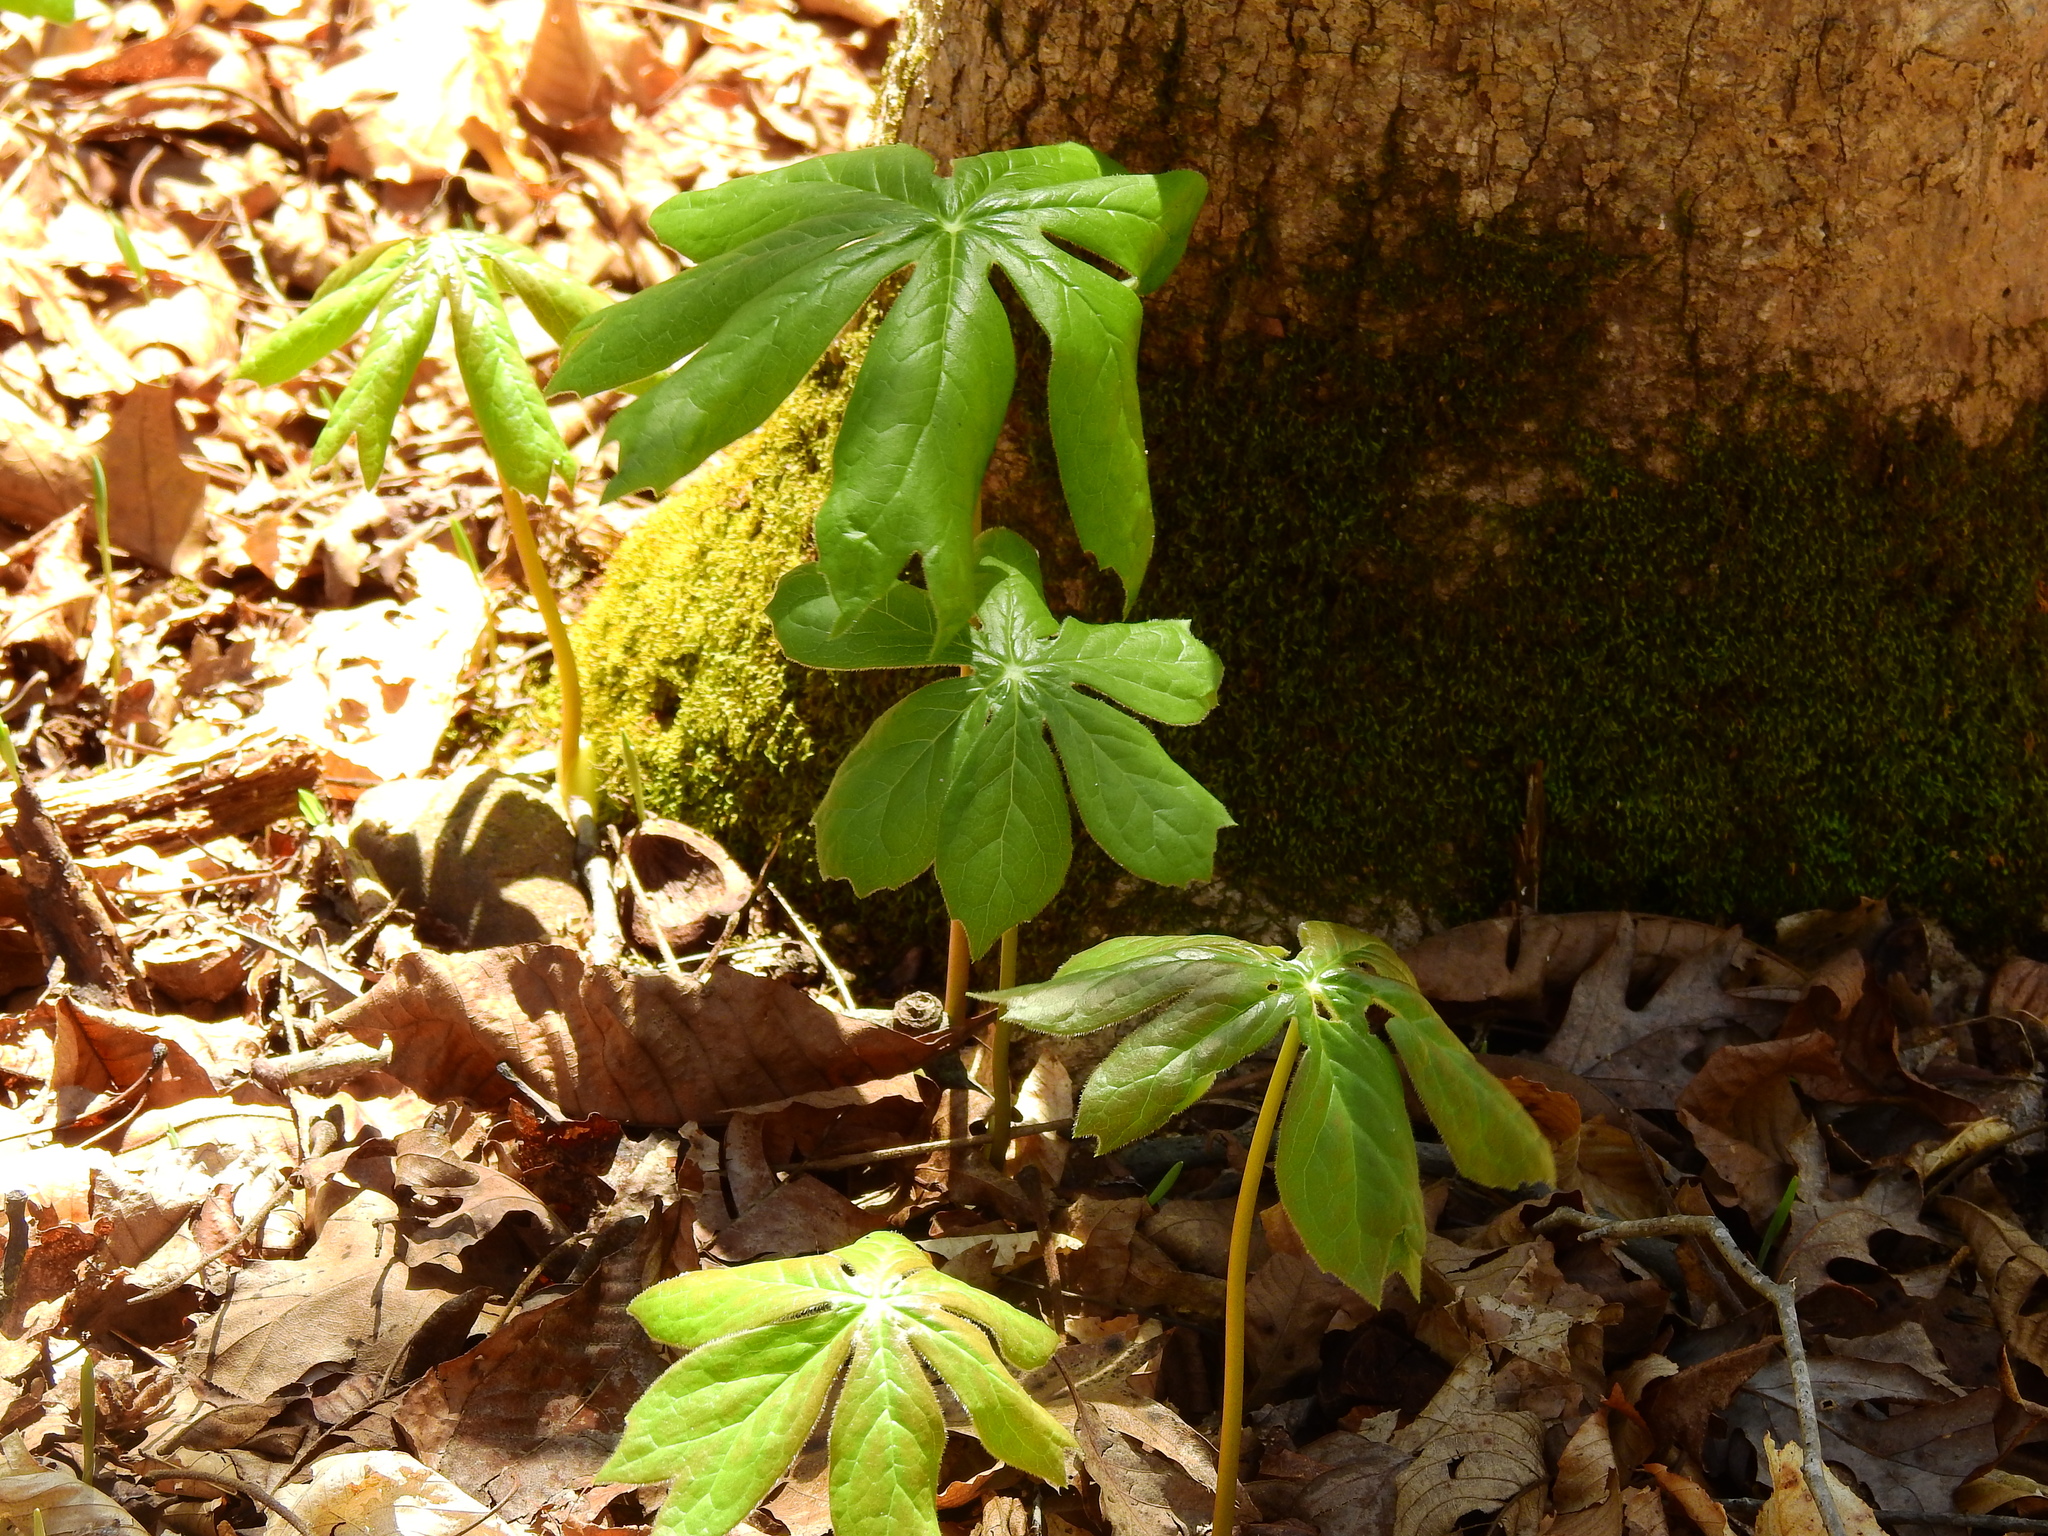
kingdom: Plantae
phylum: Tracheophyta
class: Magnoliopsida
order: Ranunculales
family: Berberidaceae
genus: Podophyllum
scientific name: Podophyllum peltatum
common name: Wild mandrake
